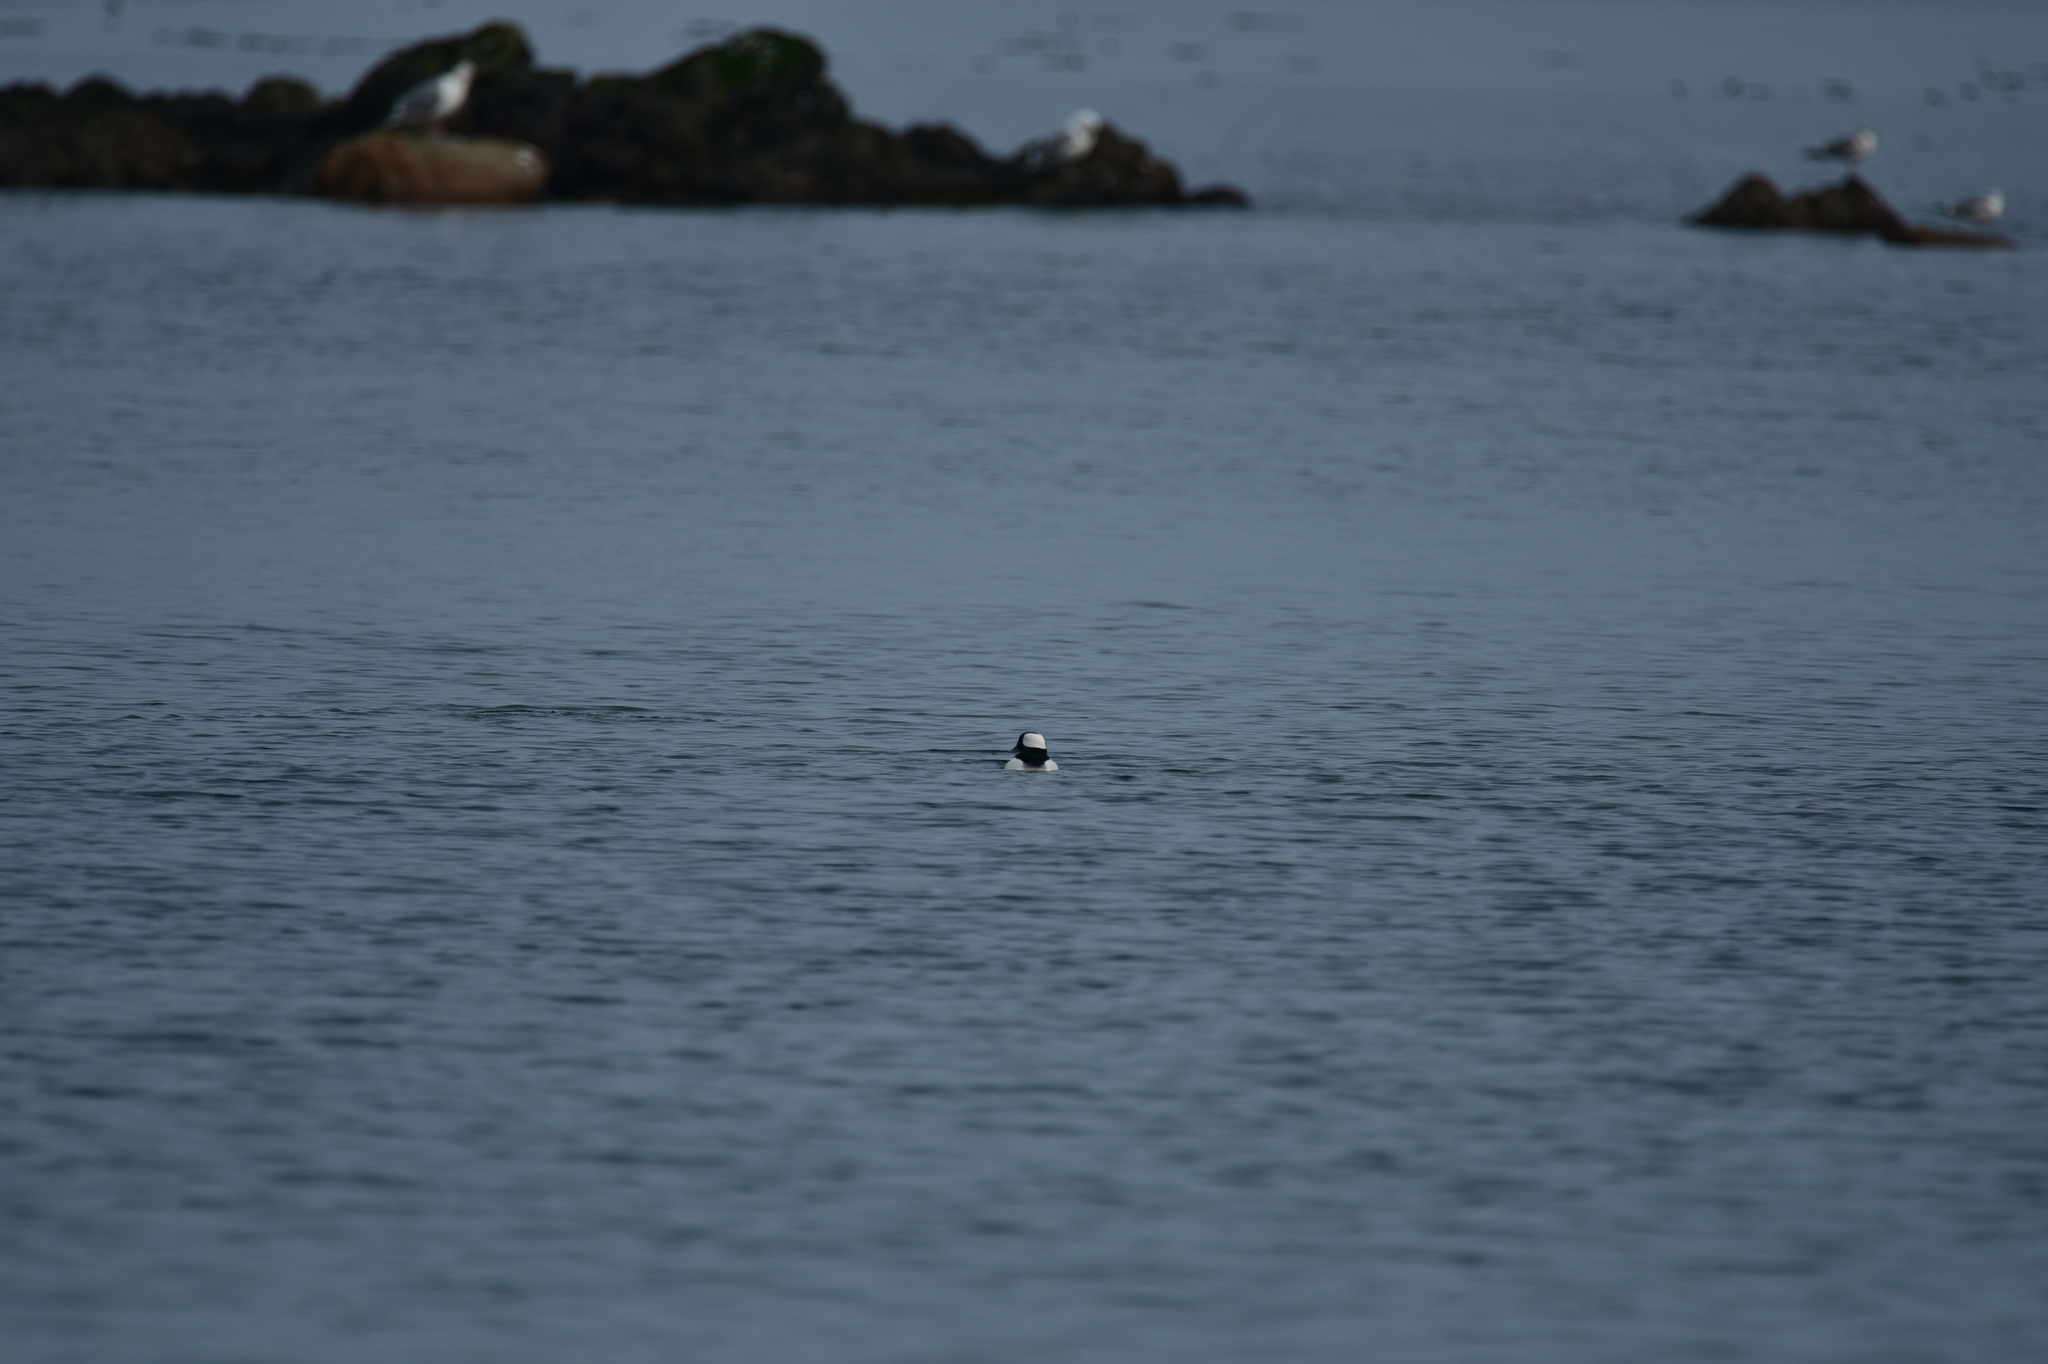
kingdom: Animalia
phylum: Chordata
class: Aves
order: Anseriformes
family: Anatidae
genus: Bucephala
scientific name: Bucephala albeola
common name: Bufflehead
